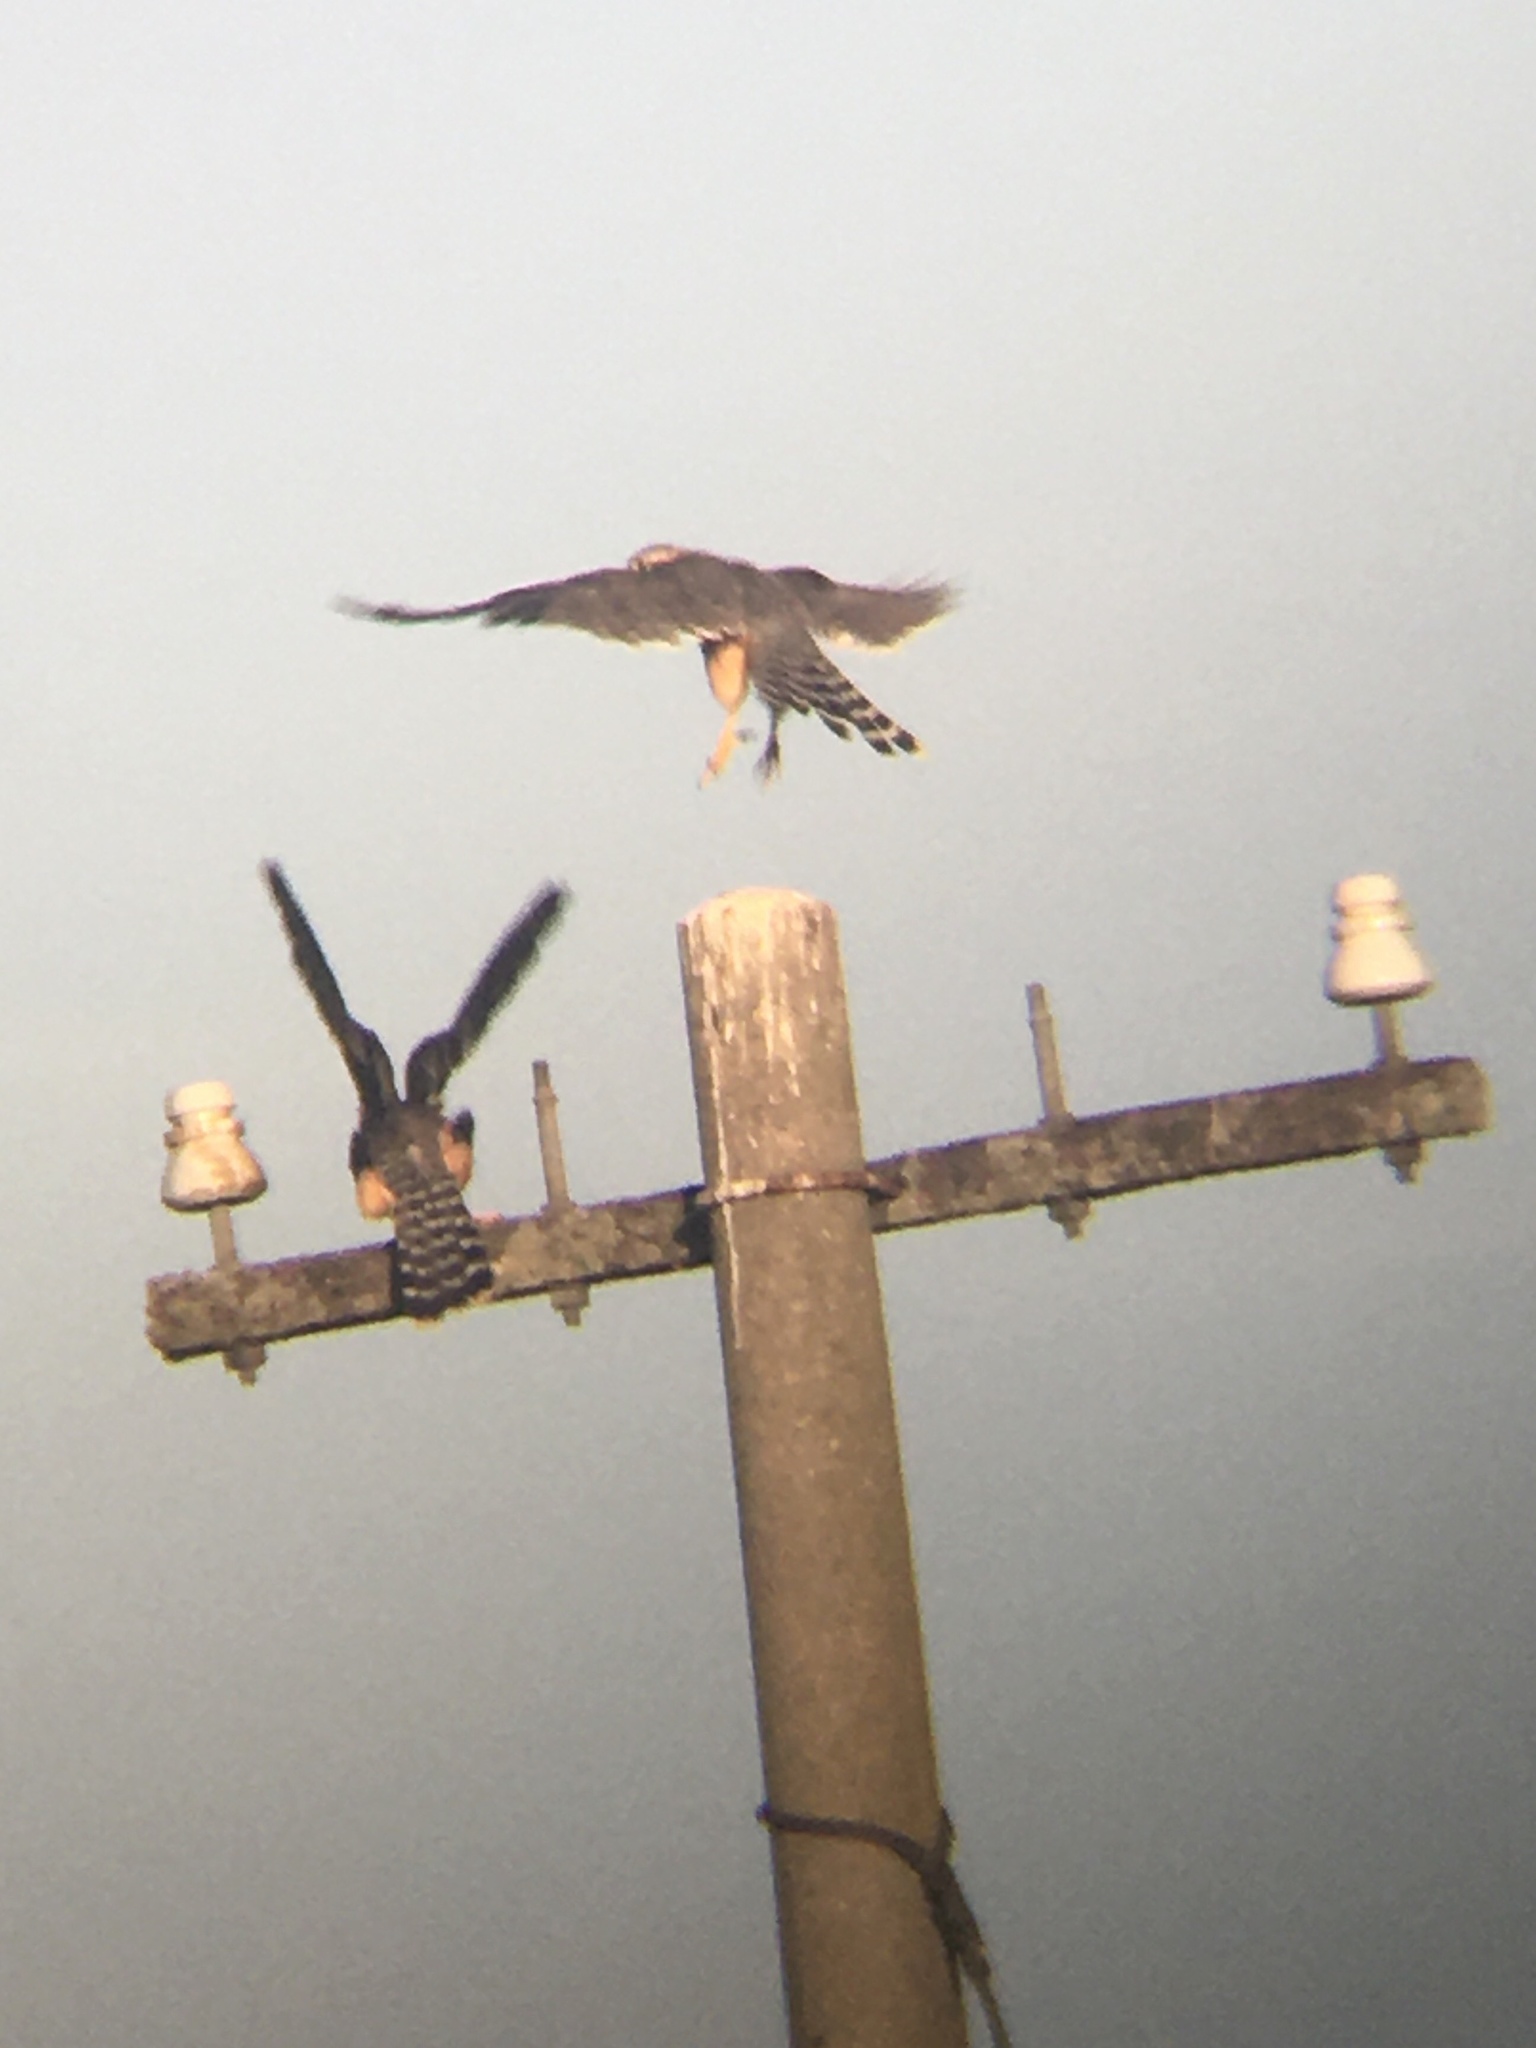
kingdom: Animalia
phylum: Chordata
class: Aves
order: Falconiformes
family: Falconidae
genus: Falco
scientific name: Falco femoralis
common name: Aplomado falcon
